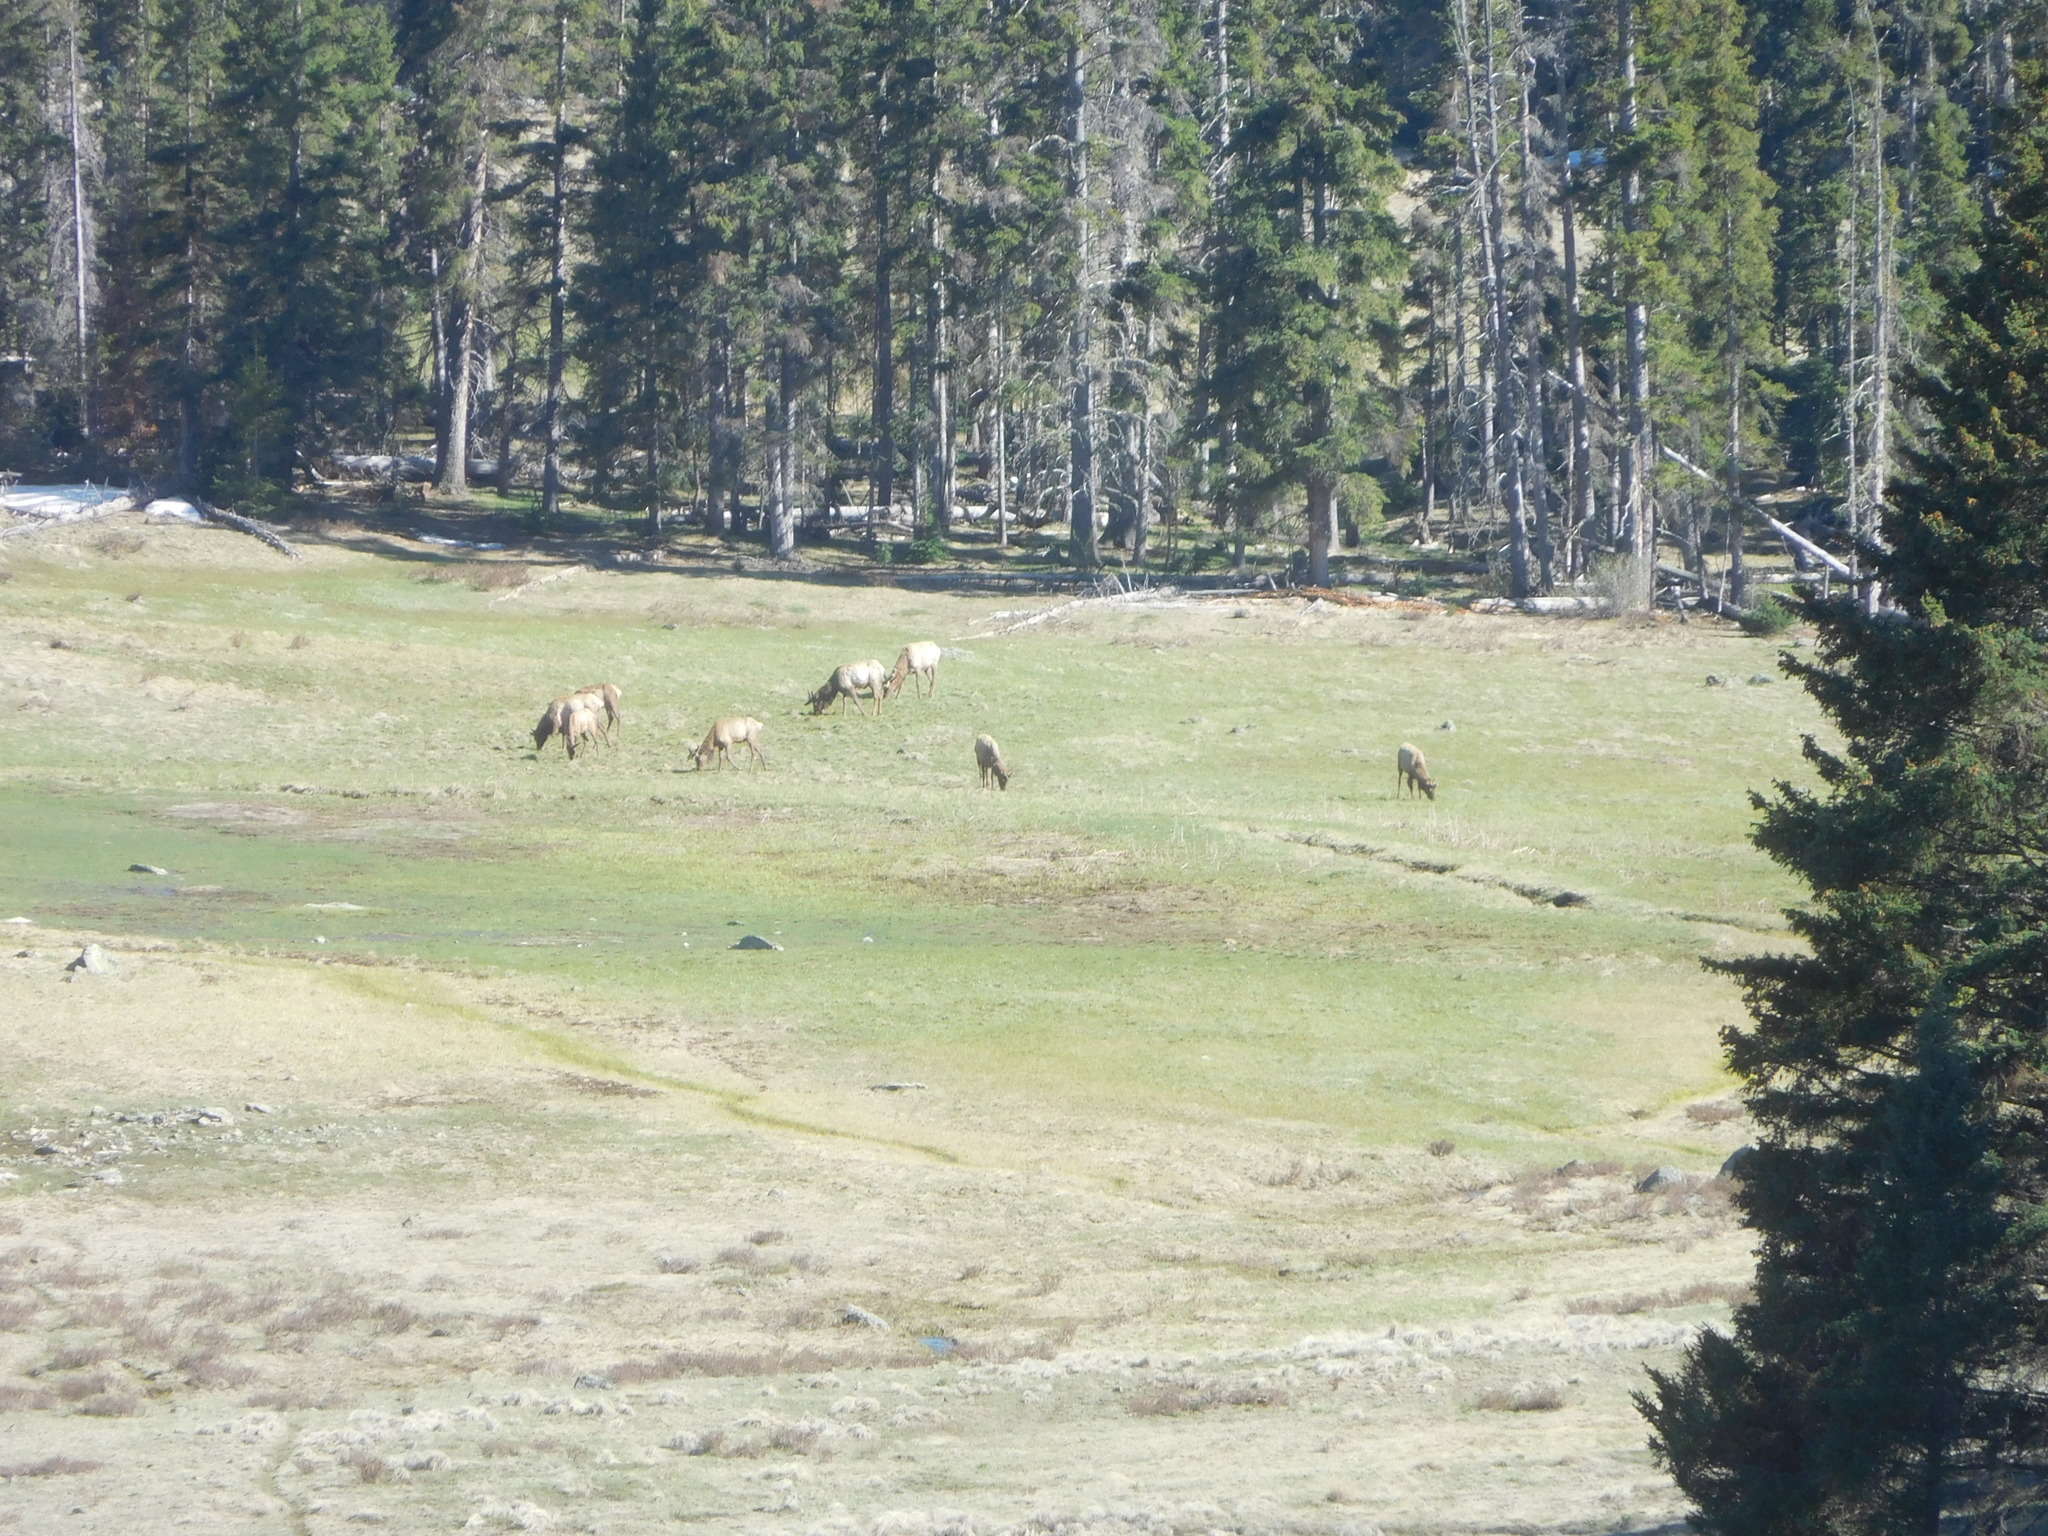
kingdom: Animalia
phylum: Chordata
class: Mammalia
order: Artiodactyla
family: Cervidae
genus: Cervus
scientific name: Cervus elaphus
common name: Red deer
